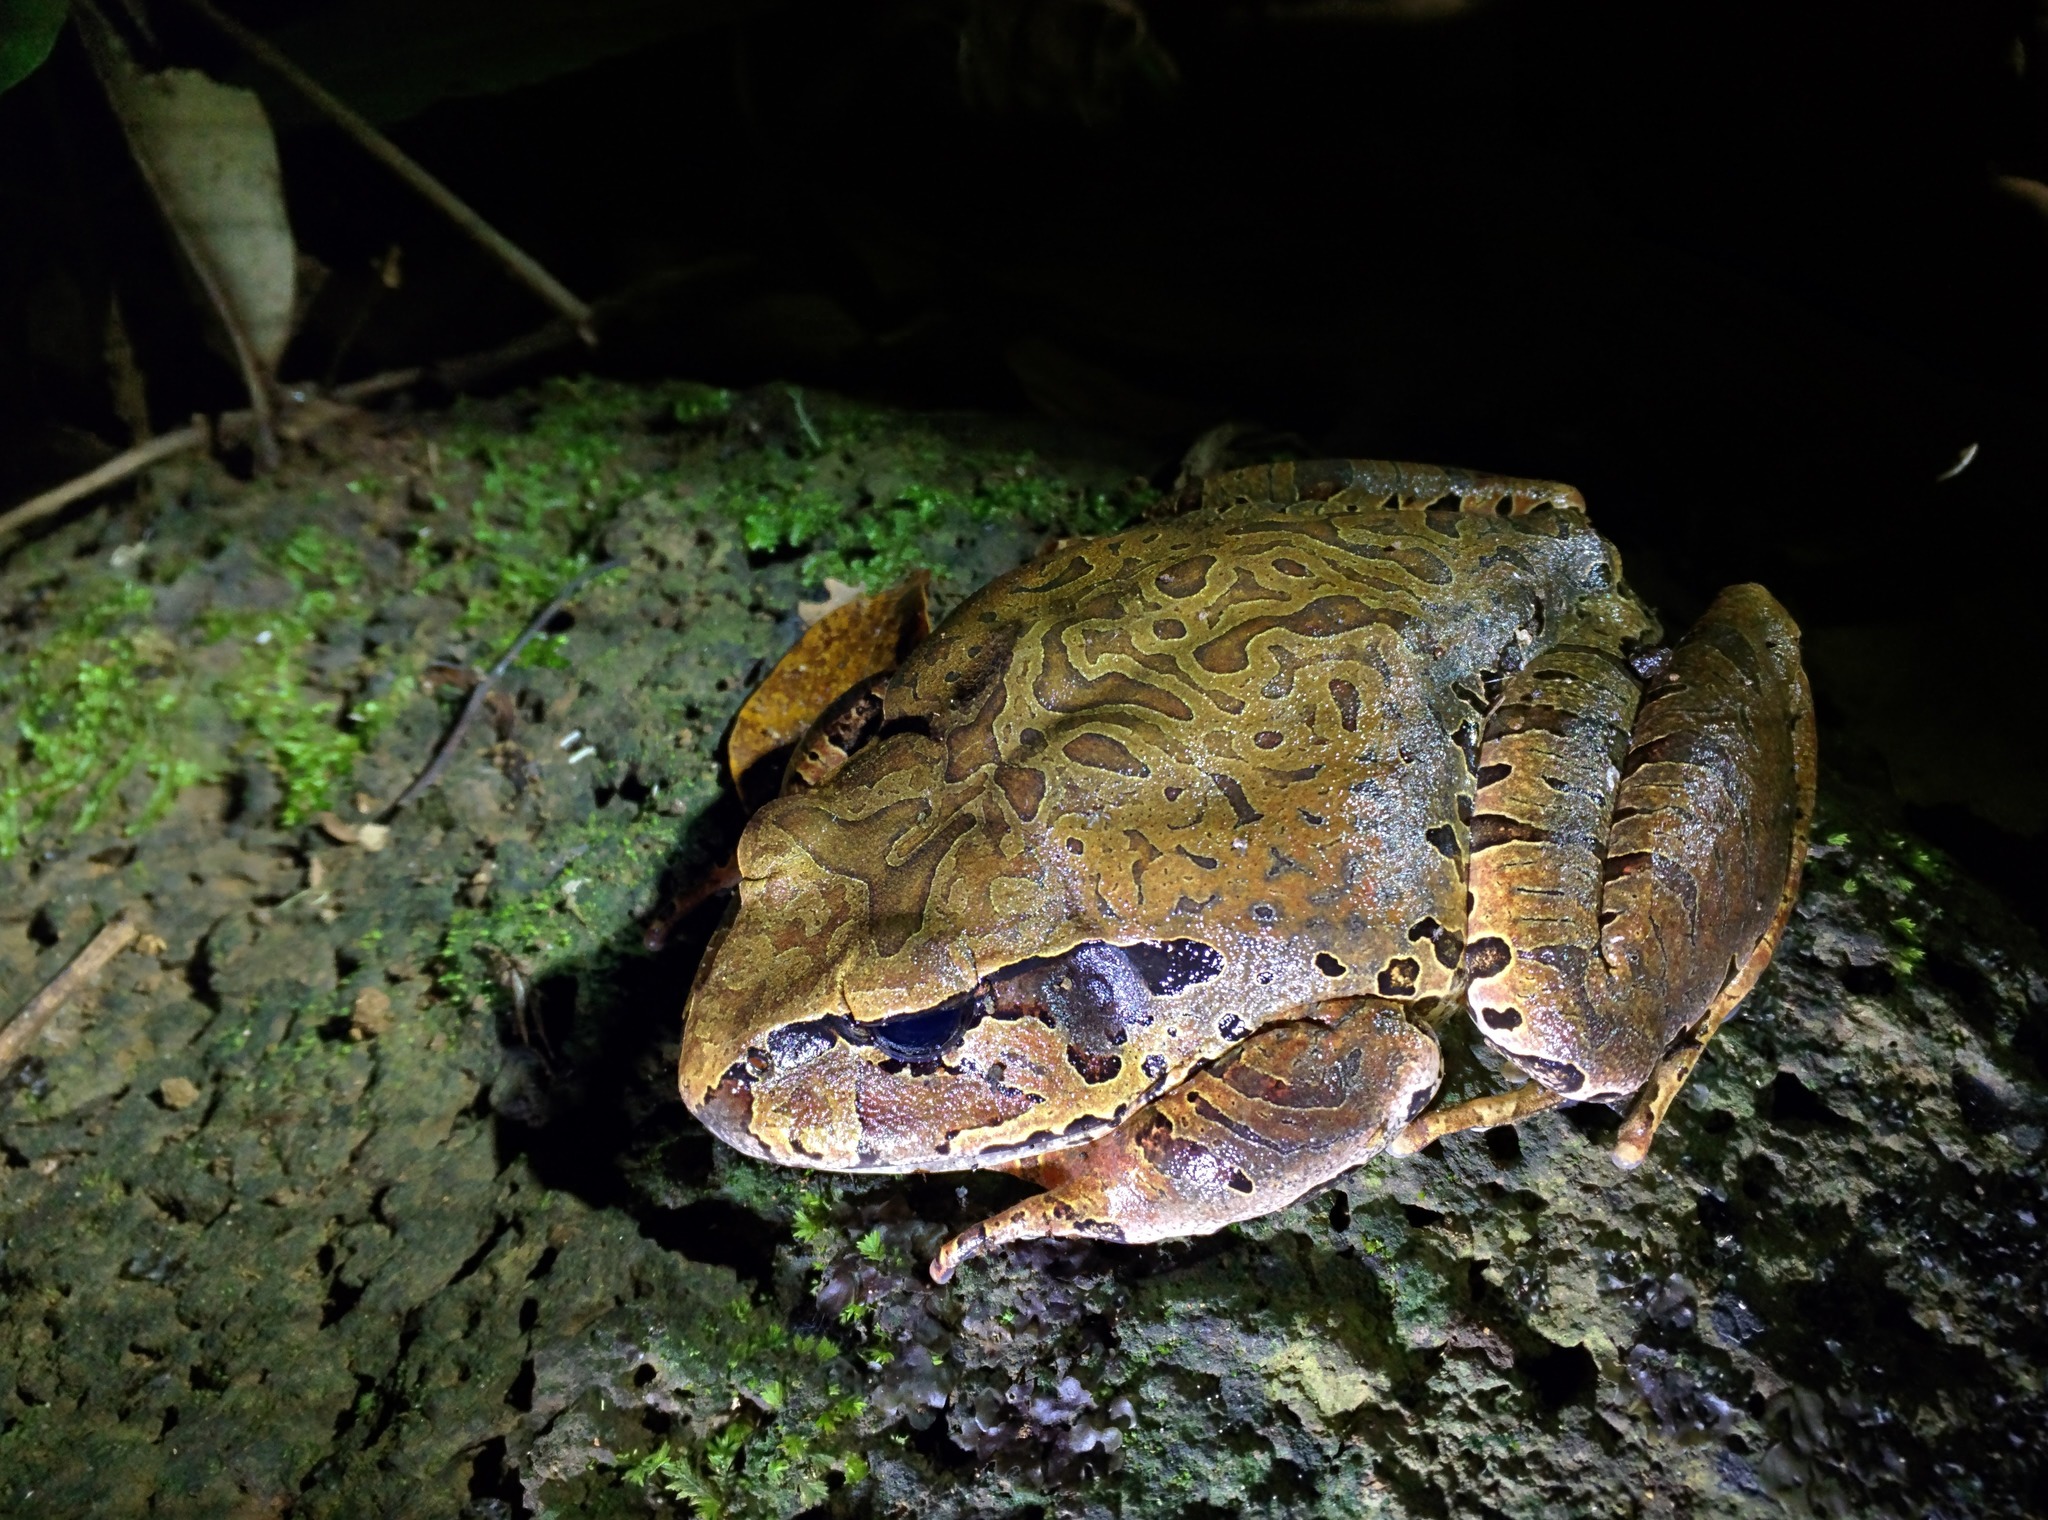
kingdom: Animalia
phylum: Chordata
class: Amphibia
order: Anura
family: Myobatrachidae
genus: Mixophyes
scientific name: Mixophyes coggeri
